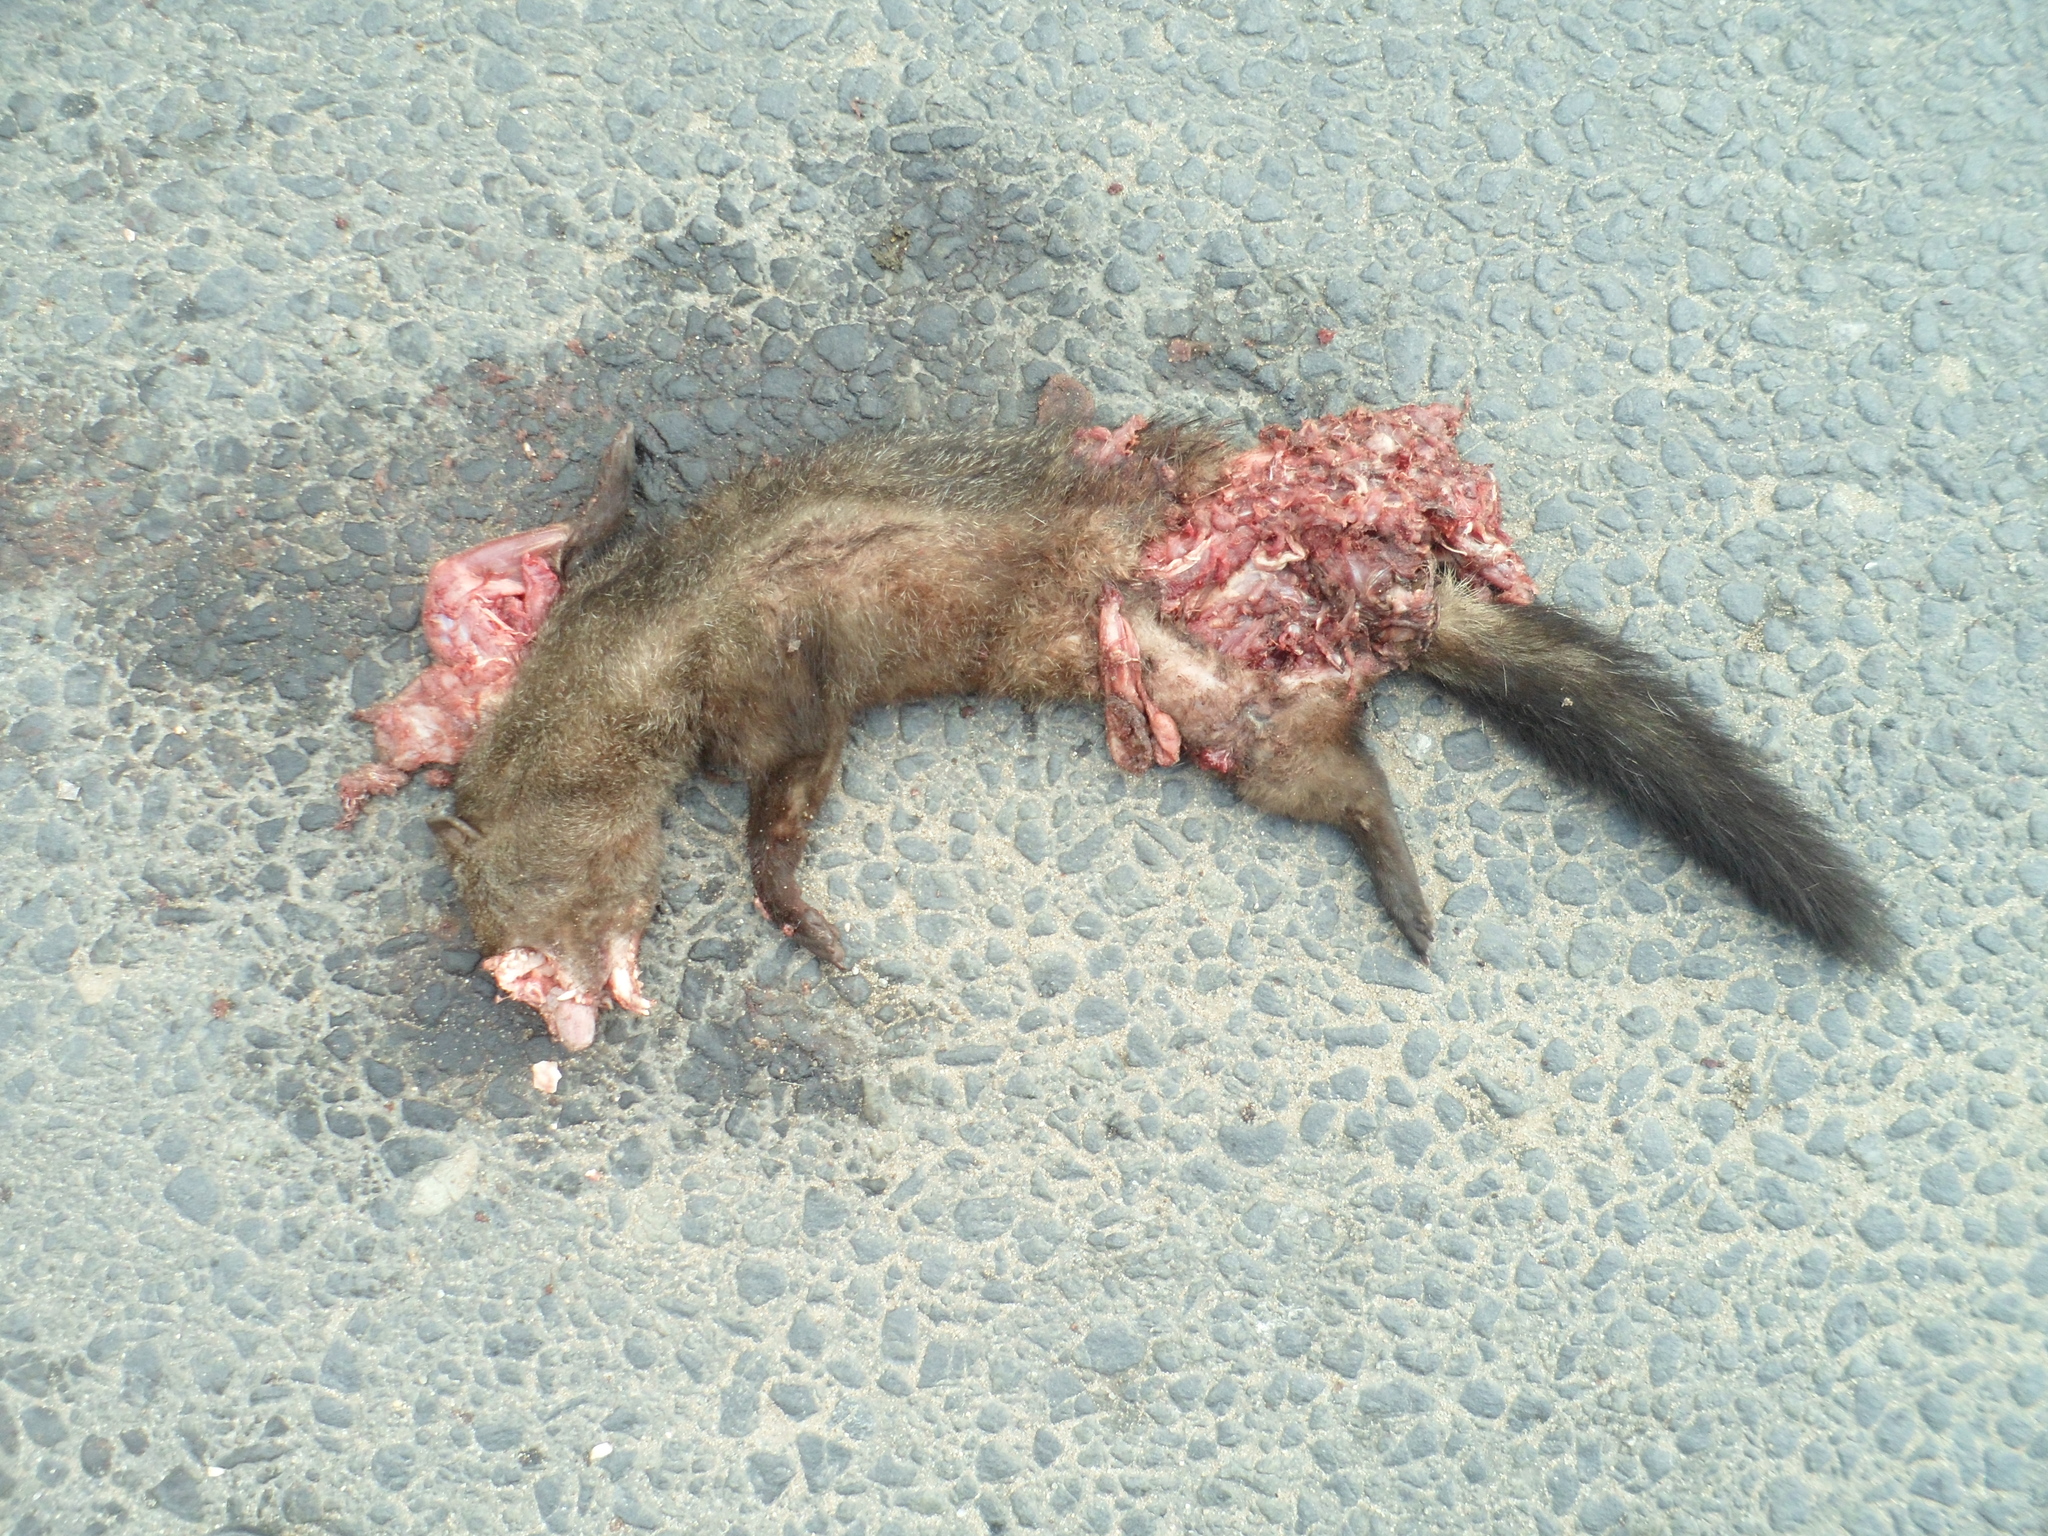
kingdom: Animalia
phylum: Chordata
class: Mammalia
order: Carnivora
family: Herpestidae
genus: Bdeogale
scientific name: Bdeogale crassicauda
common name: Bushy-tailed mongoose
